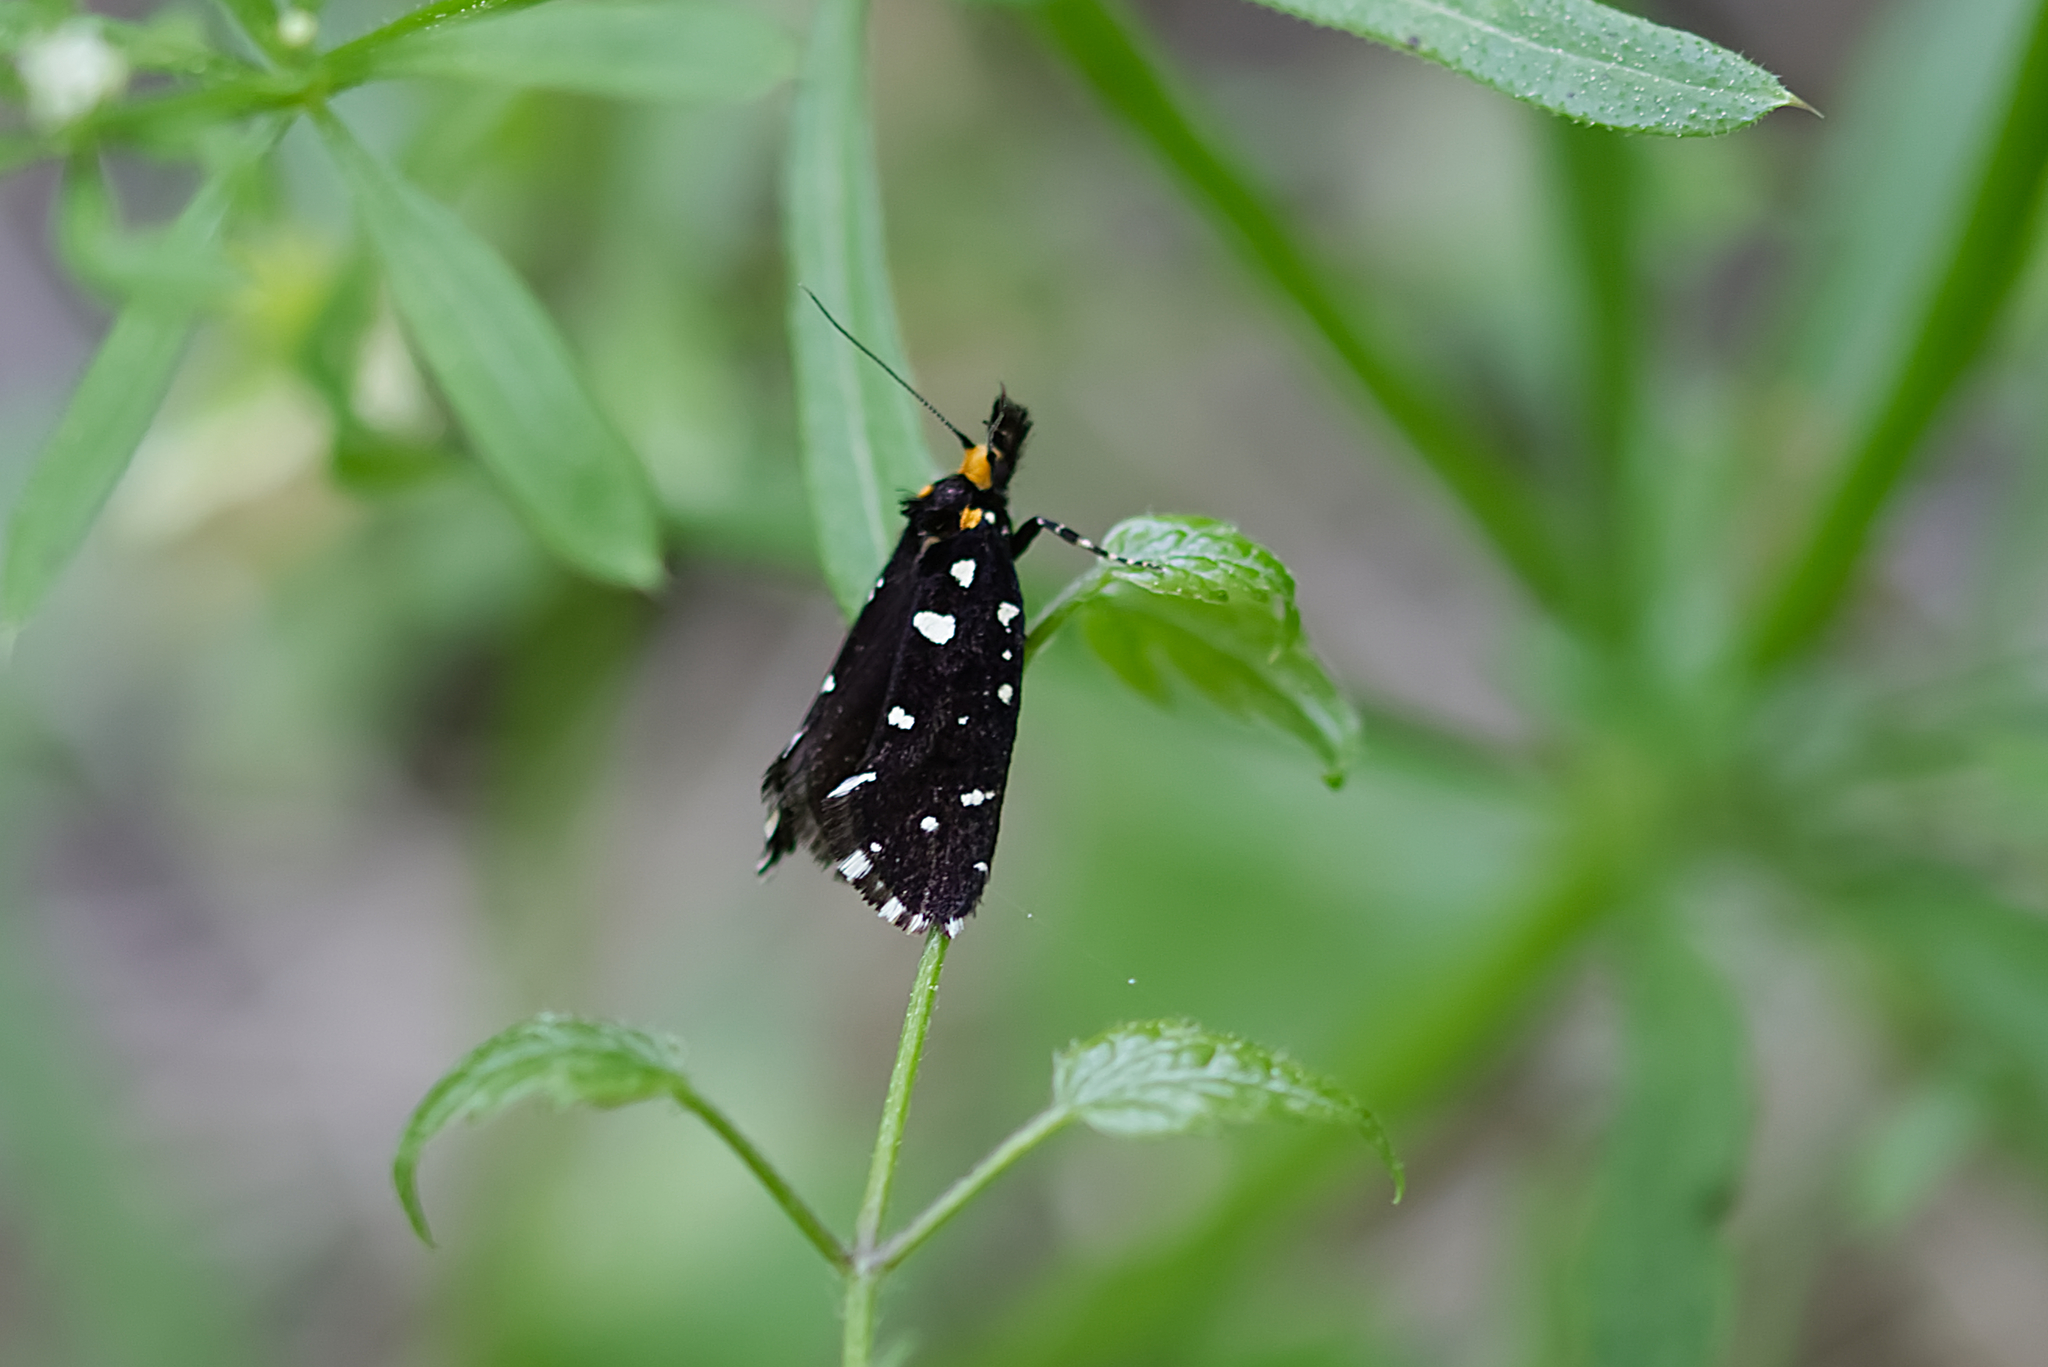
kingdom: Animalia
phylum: Arthropoda
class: Insecta
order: Lepidoptera
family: Tineidae
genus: Euplocamus
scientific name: Euplocamus anthracinalis
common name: Black clothes
